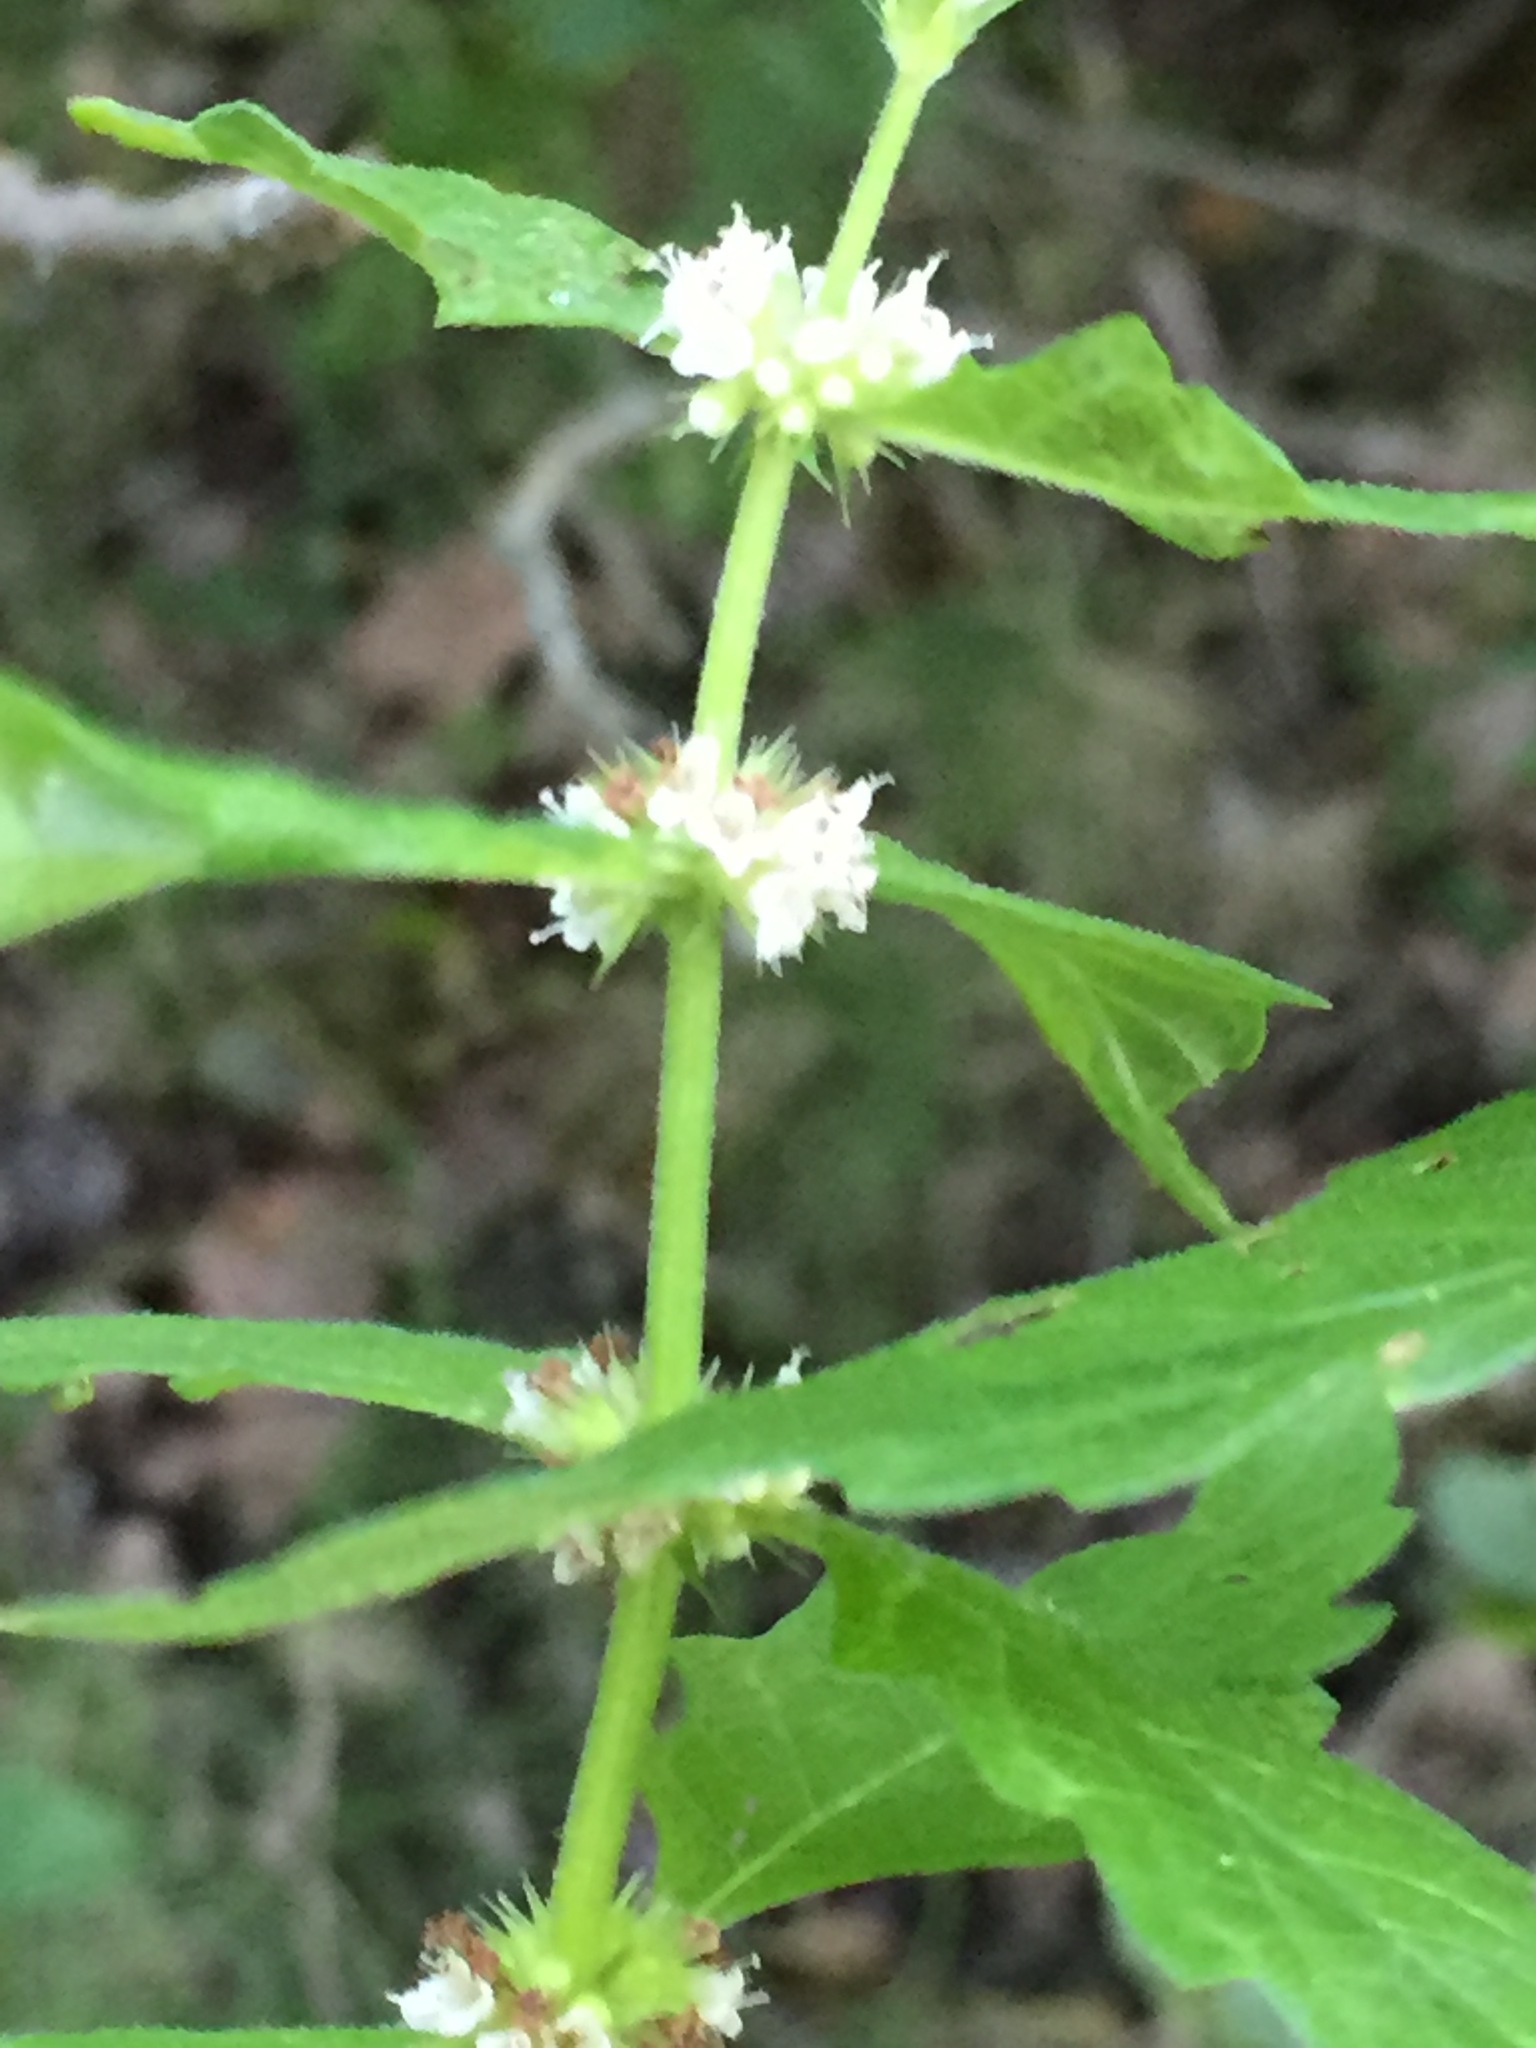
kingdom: Plantae
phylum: Tracheophyta
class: Magnoliopsida
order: Lamiales
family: Lamiaceae
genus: Lycopus
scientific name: Lycopus europaeus
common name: European bugleweed
